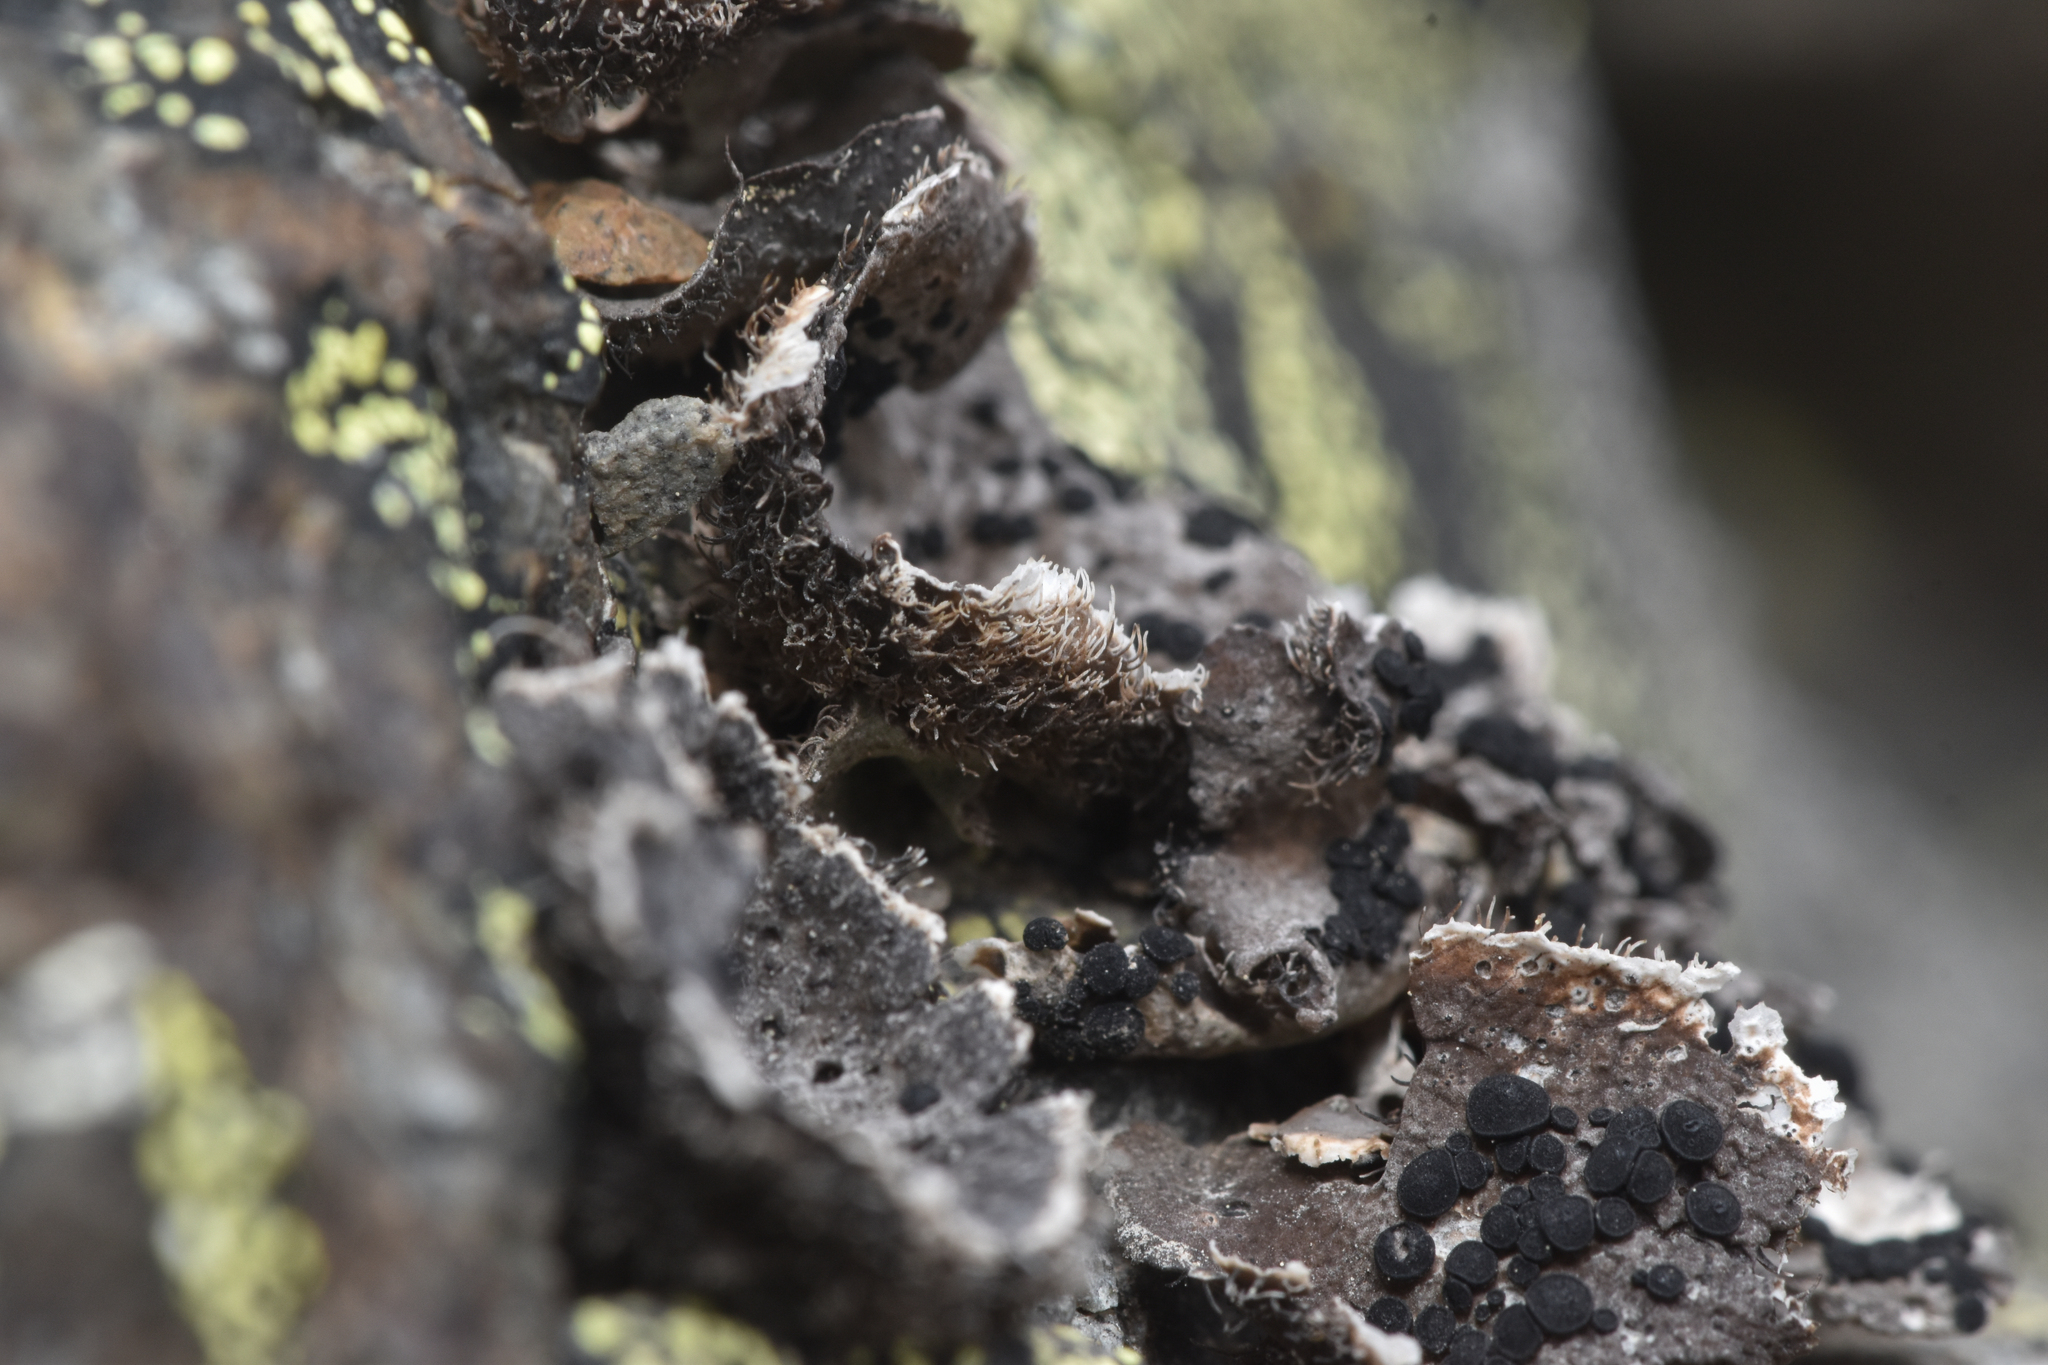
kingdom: Fungi
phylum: Ascomycota
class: Lecanoromycetes
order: Umbilicariales
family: Umbilicariaceae
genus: Umbilicaria
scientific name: Umbilicaria virginis
